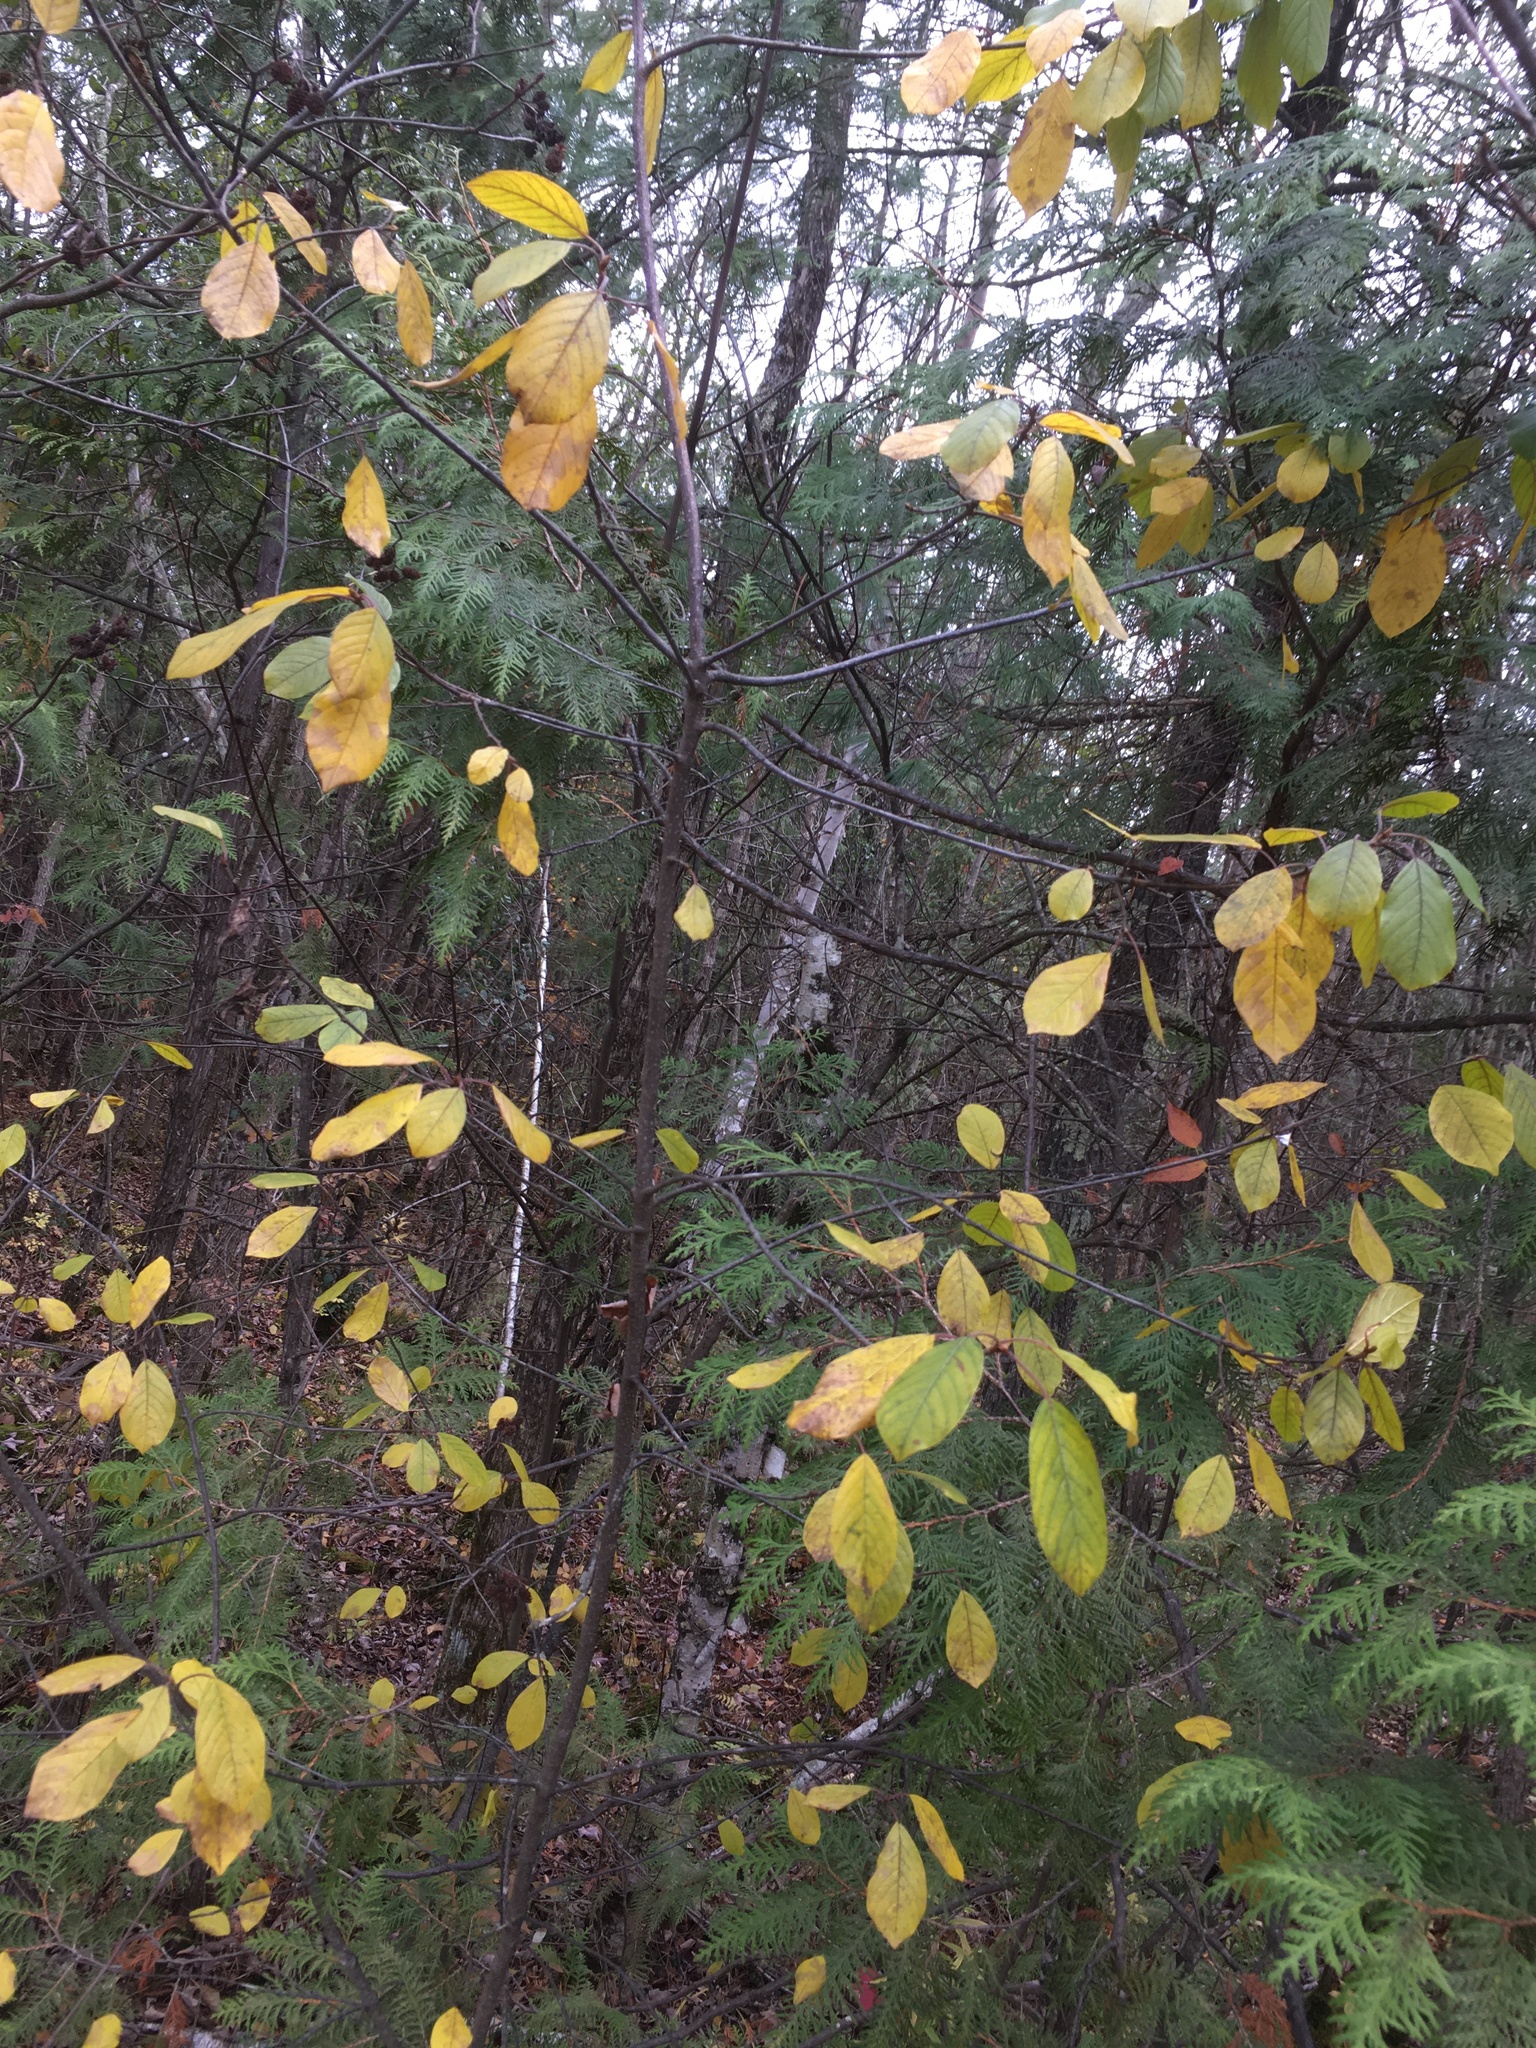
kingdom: Plantae
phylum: Tracheophyta
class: Magnoliopsida
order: Rosales
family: Rhamnaceae
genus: Frangula
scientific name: Frangula alnus
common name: Alder buckthorn
